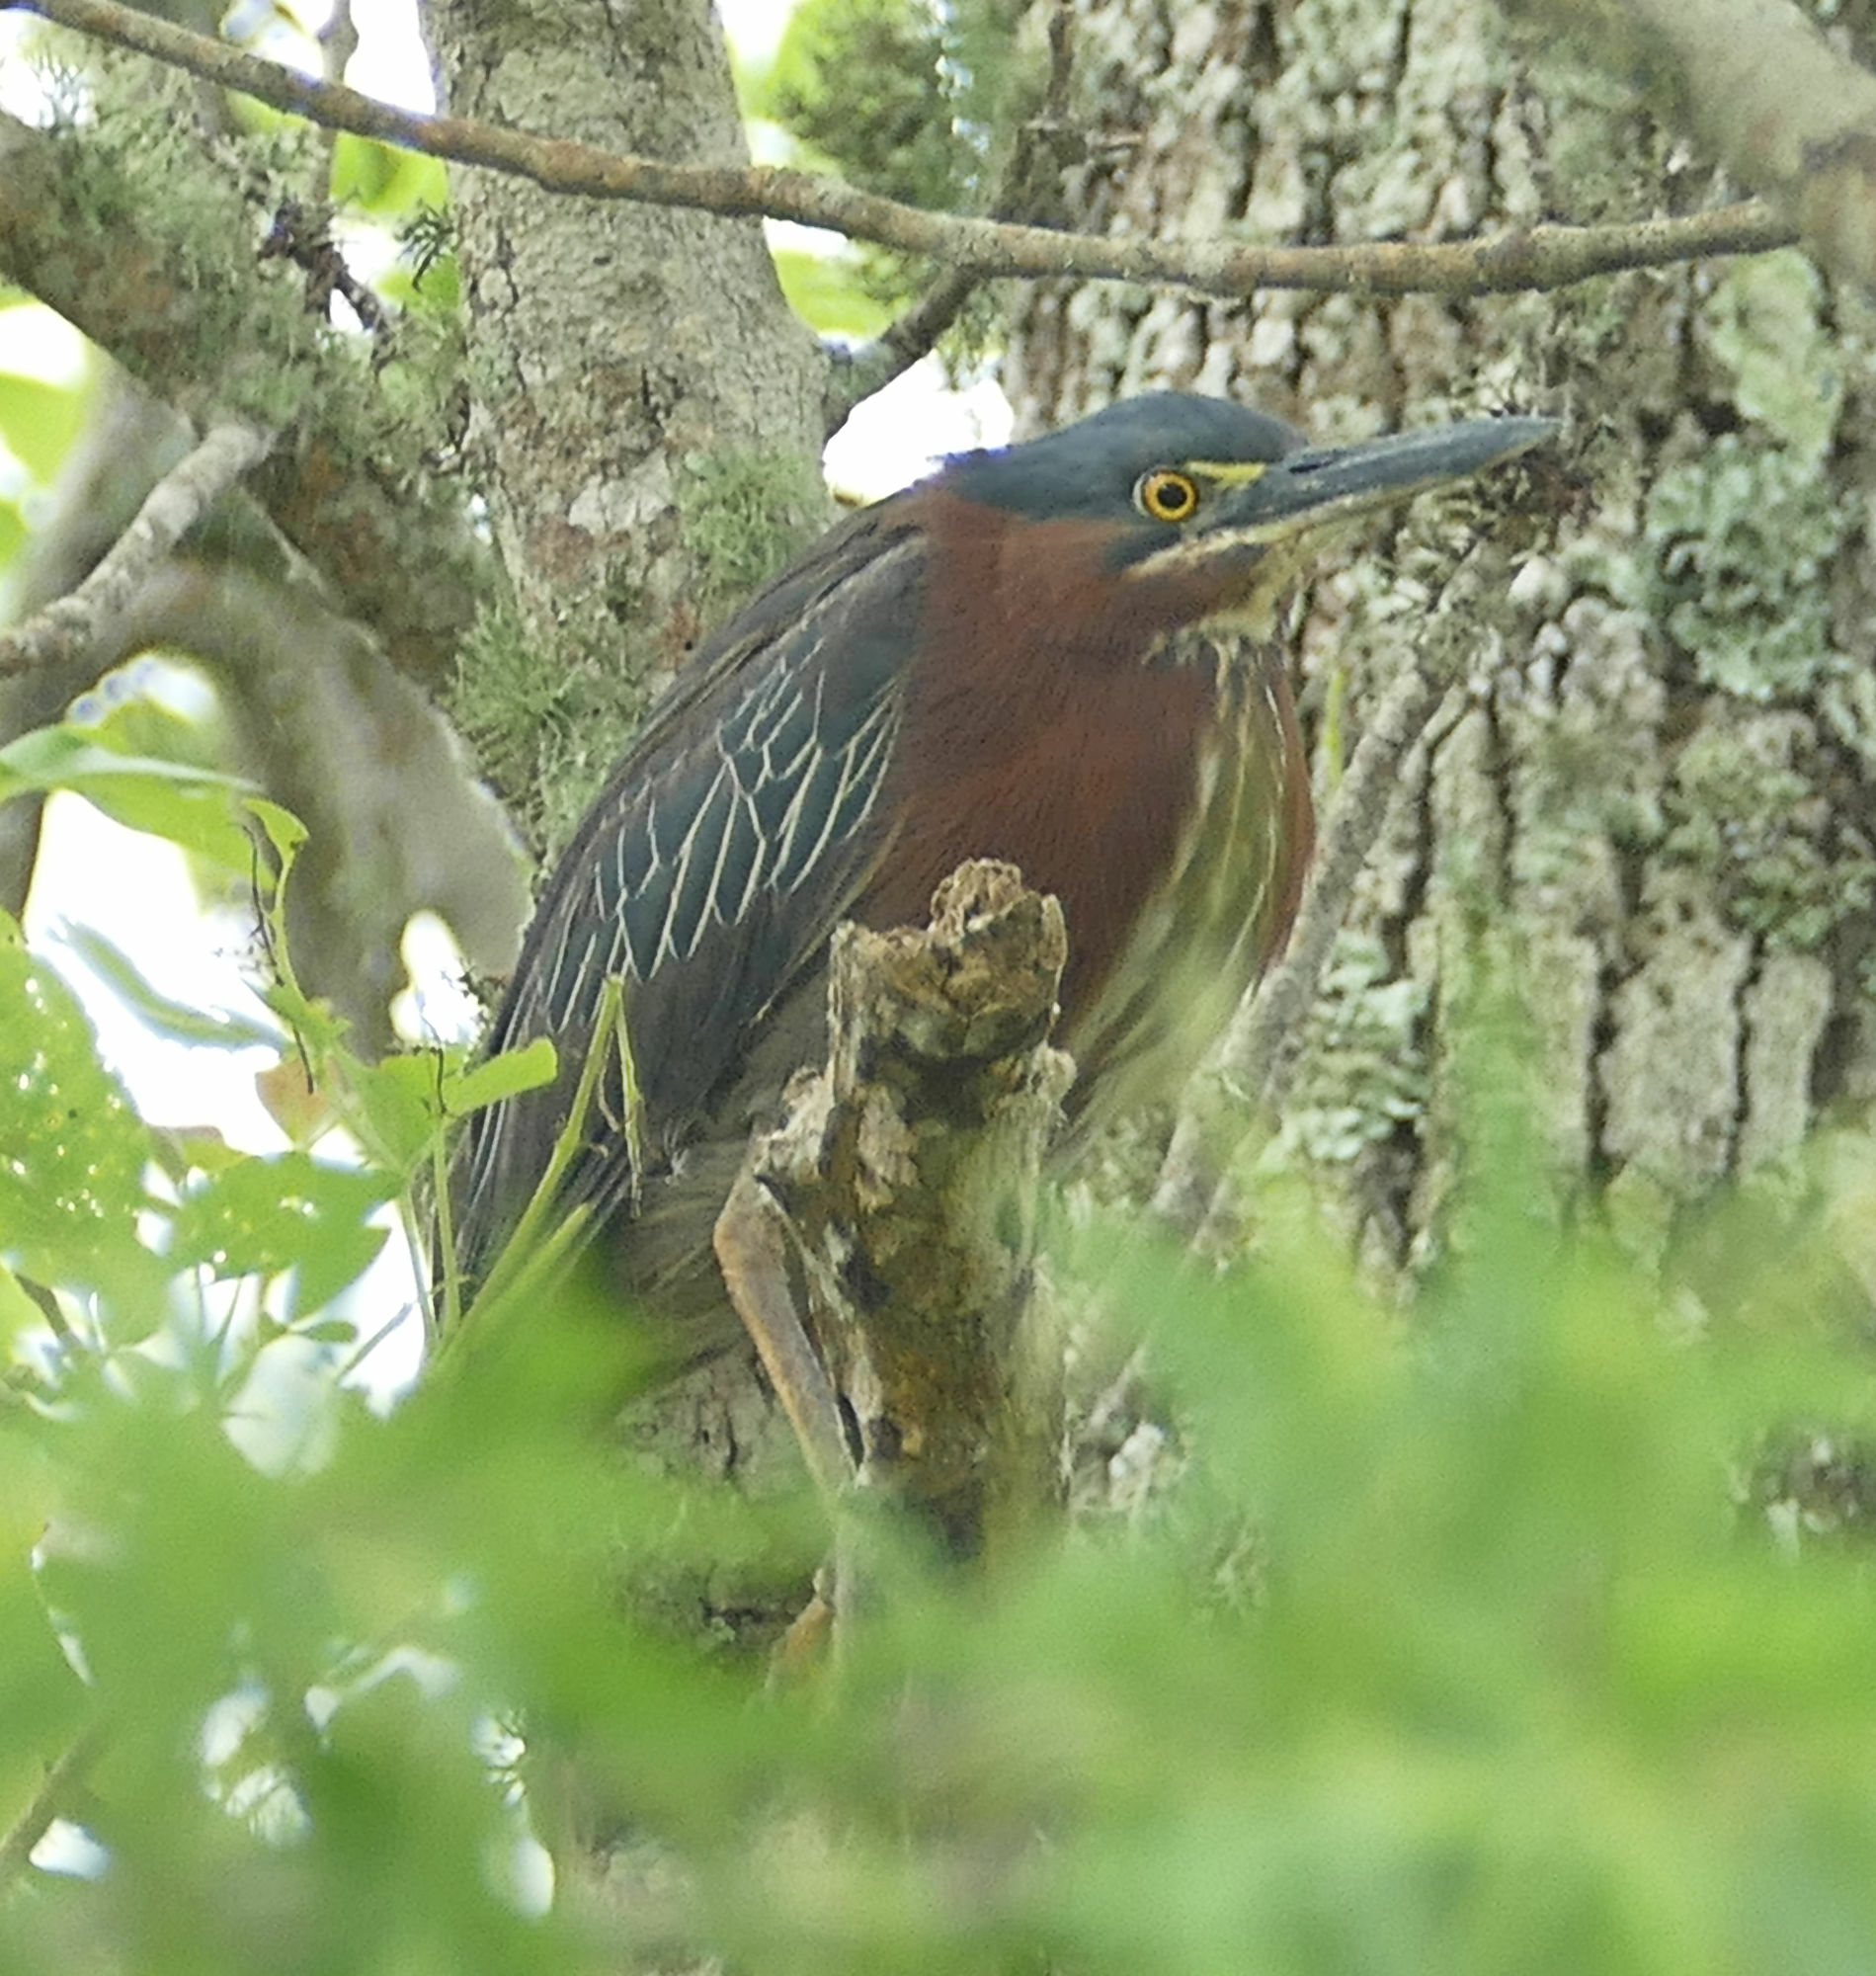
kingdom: Animalia
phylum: Chordata
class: Aves
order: Pelecaniformes
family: Ardeidae
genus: Butorides
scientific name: Butorides virescens
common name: Green heron
